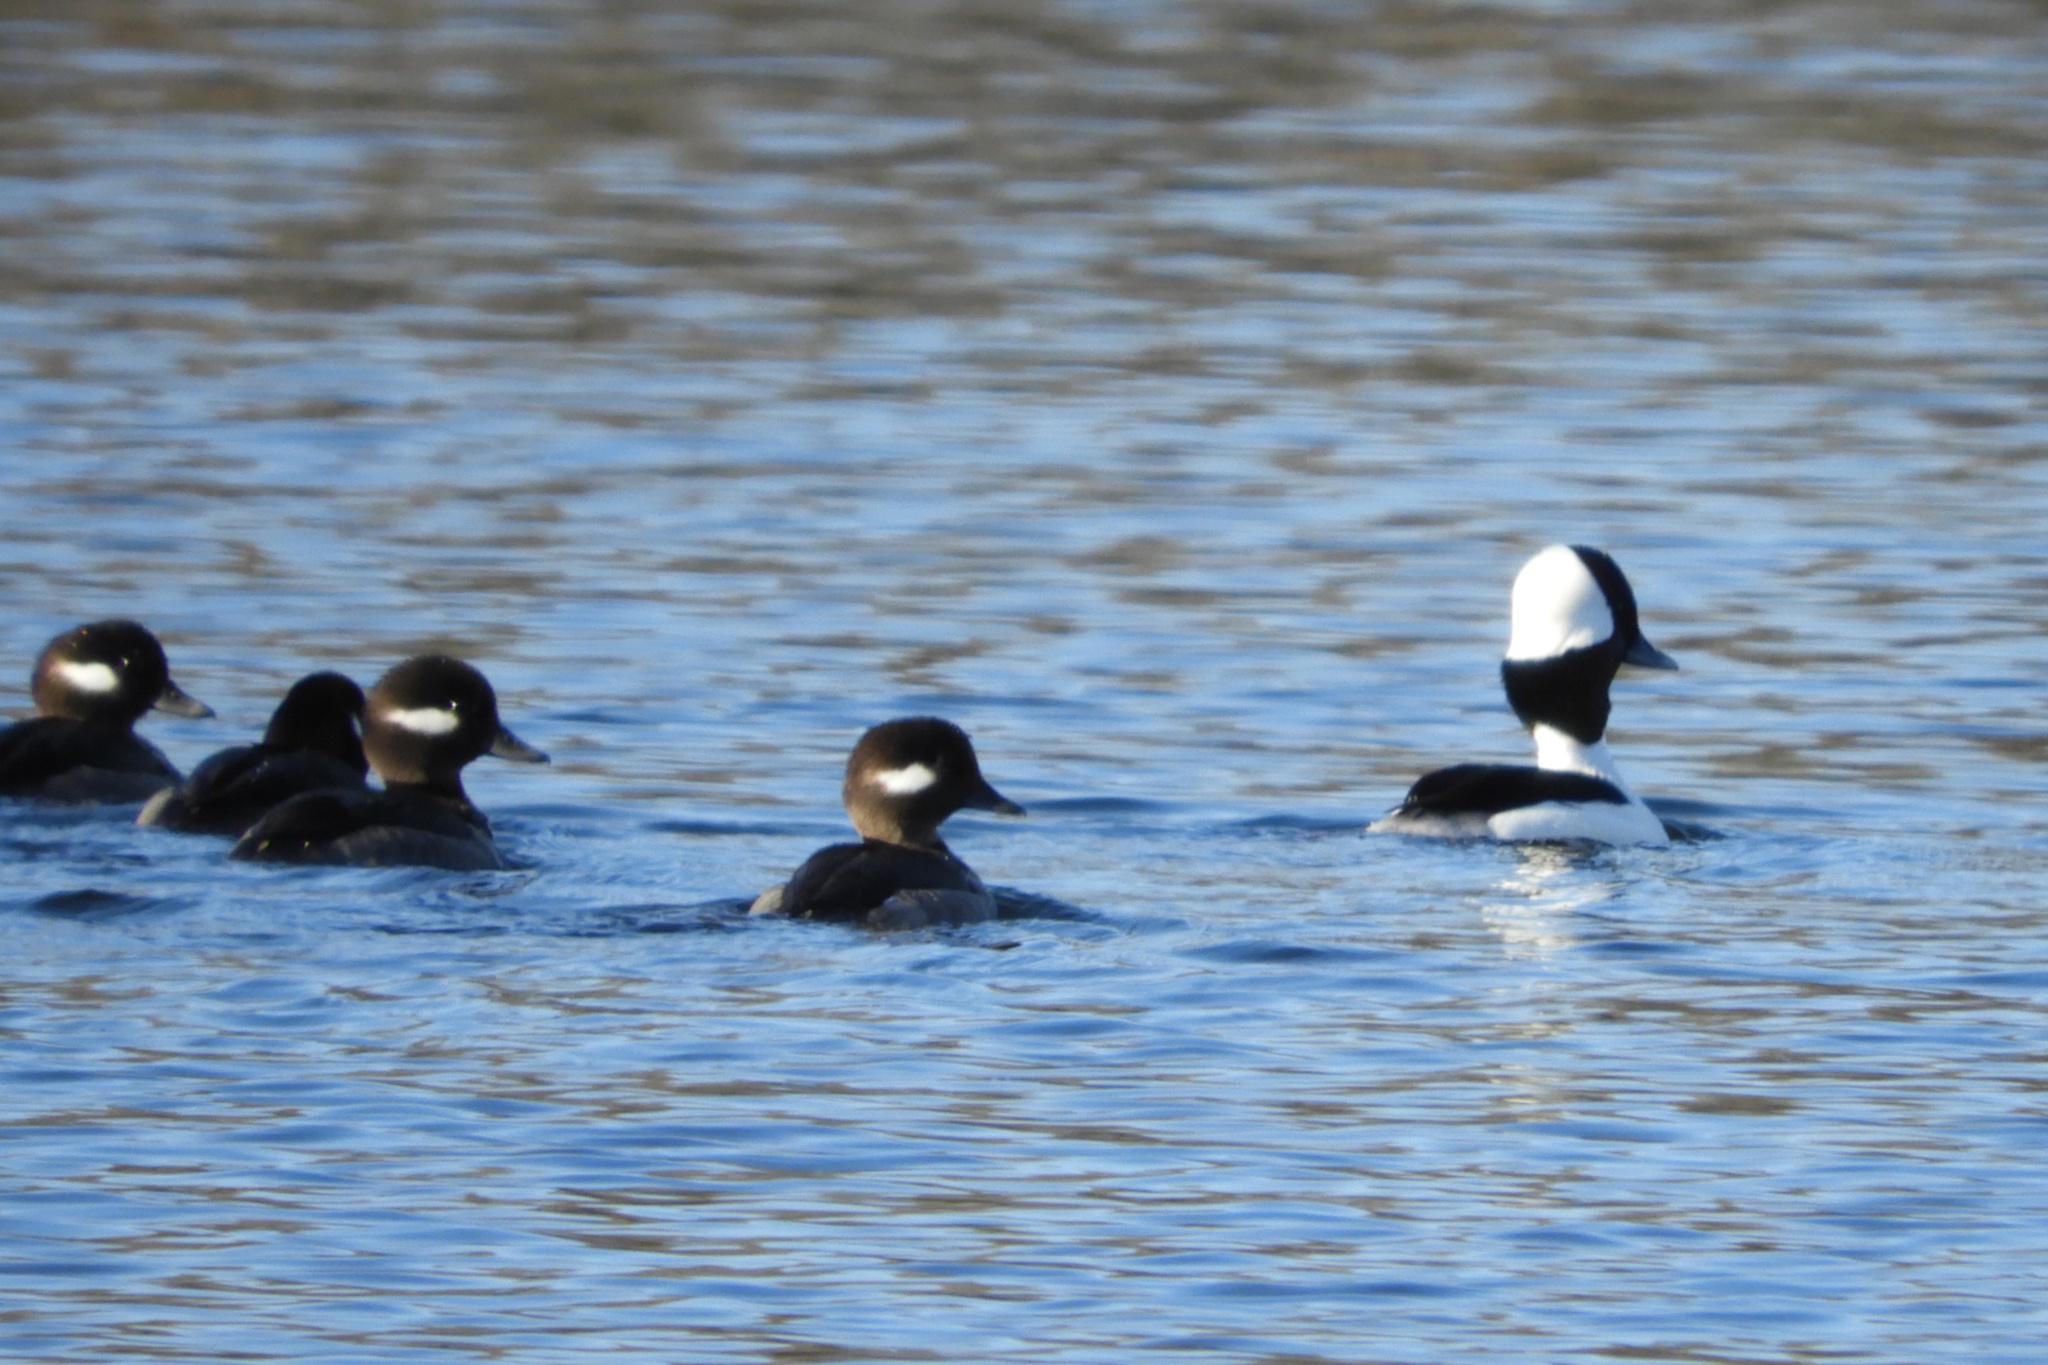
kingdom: Animalia
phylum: Chordata
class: Aves
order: Anseriformes
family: Anatidae
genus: Bucephala
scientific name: Bucephala albeola
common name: Bufflehead
